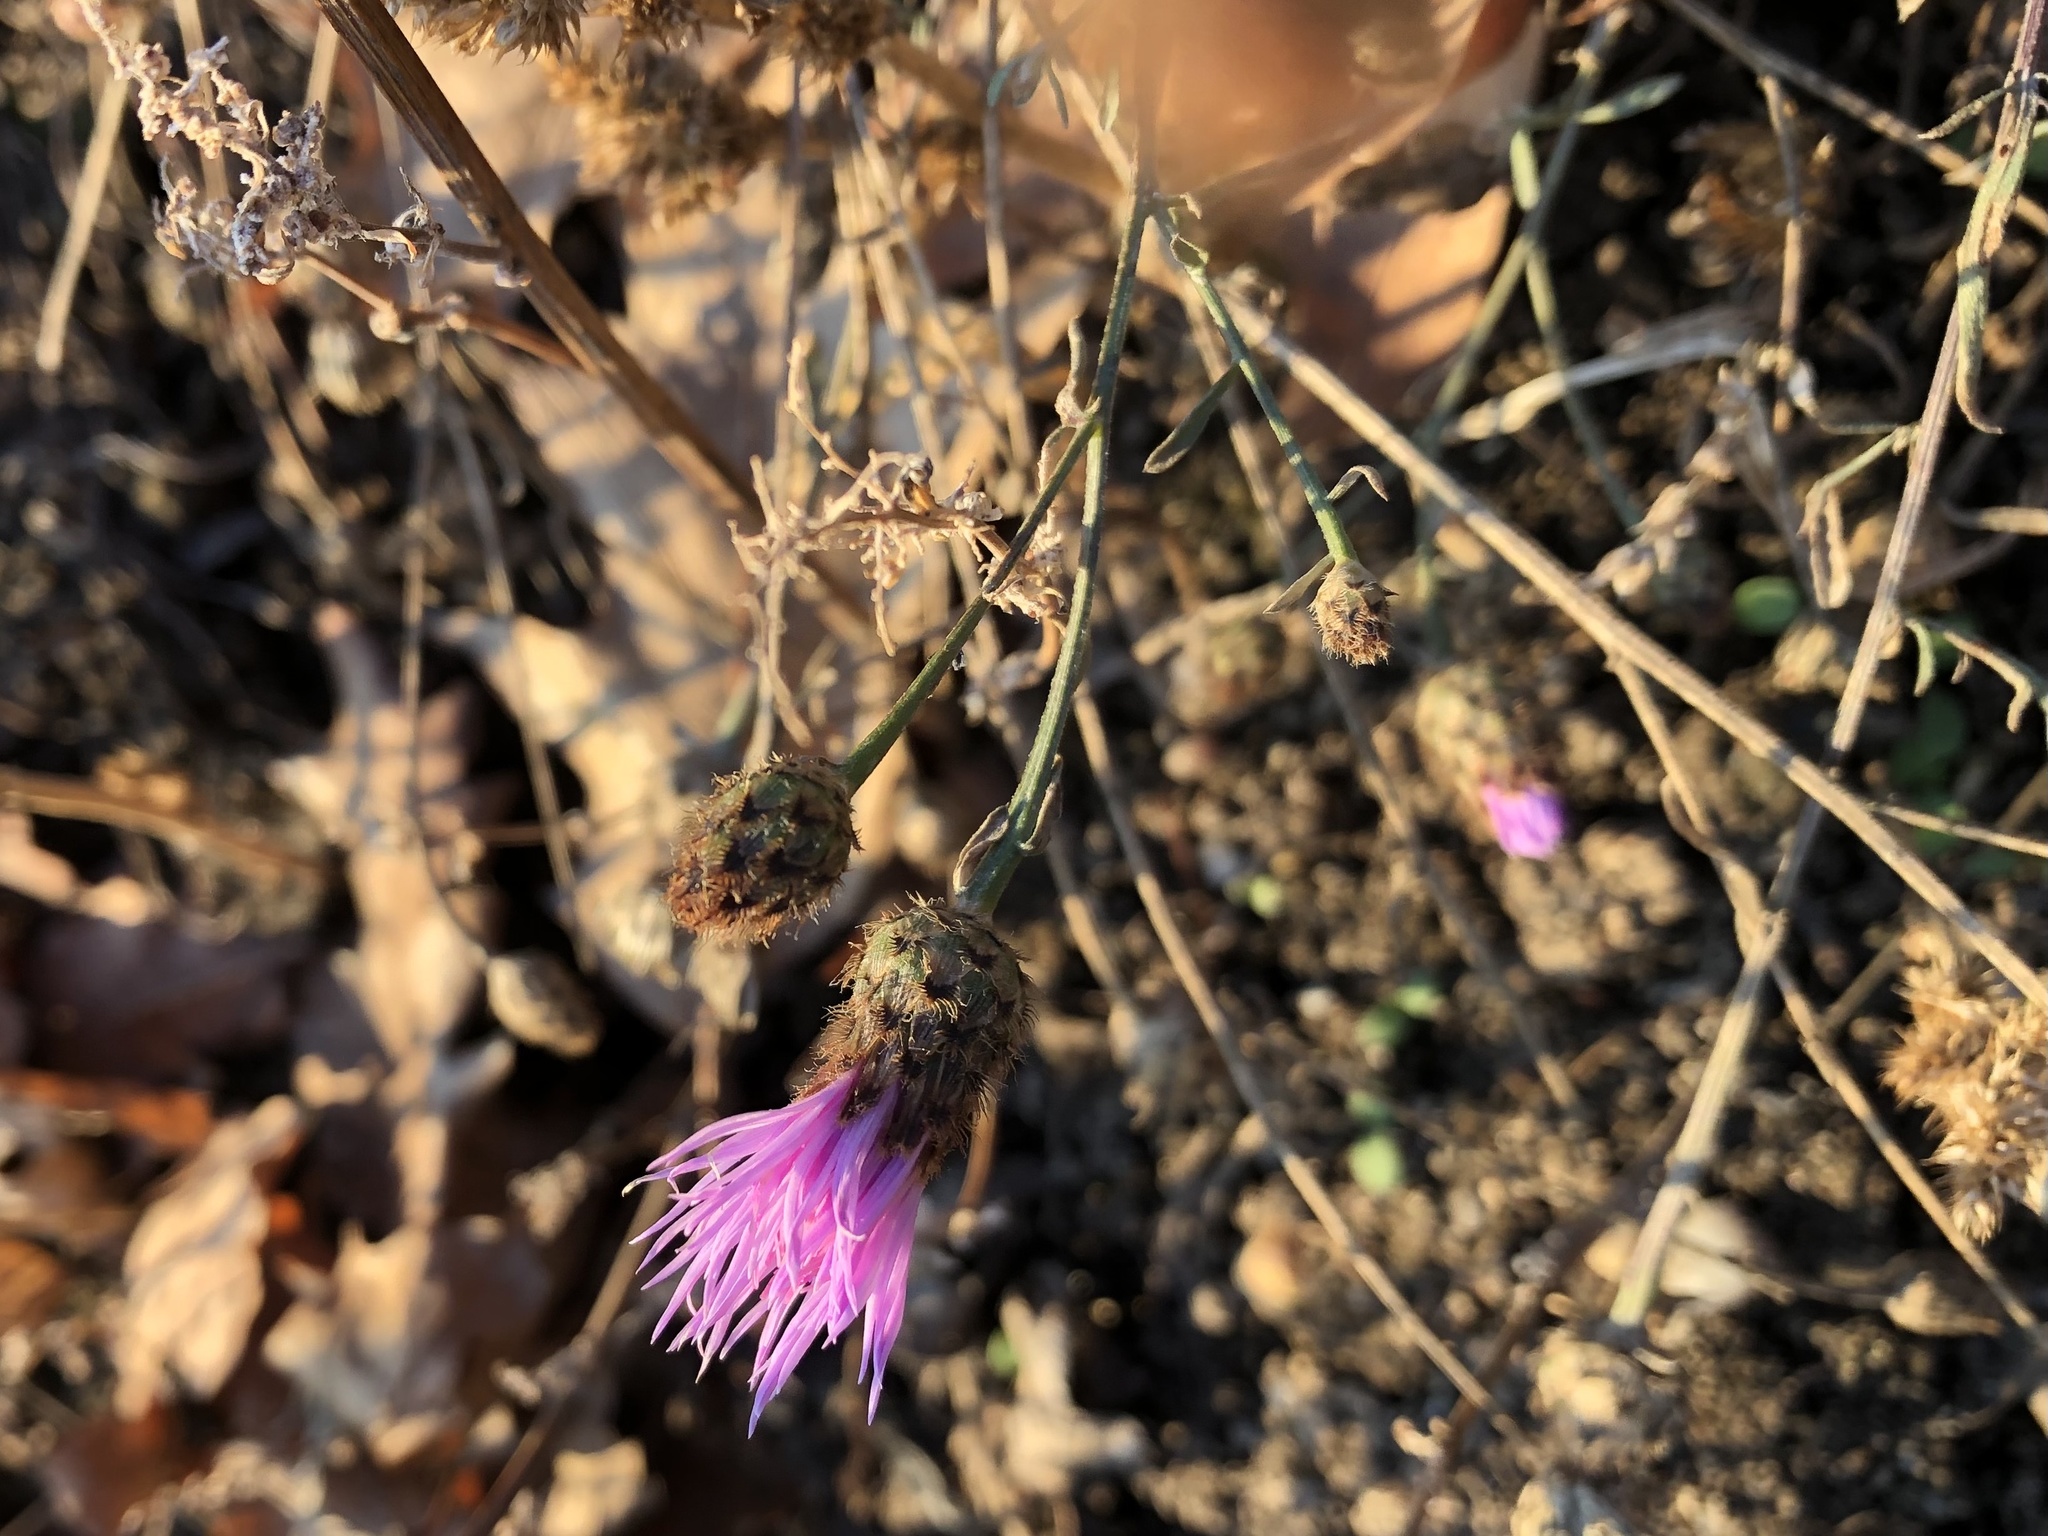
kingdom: Plantae
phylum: Tracheophyta
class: Magnoliopsida
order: Asterales
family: Asteraceae
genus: Centaurea
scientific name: Centaurea stoebe
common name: Spotted knapweed
